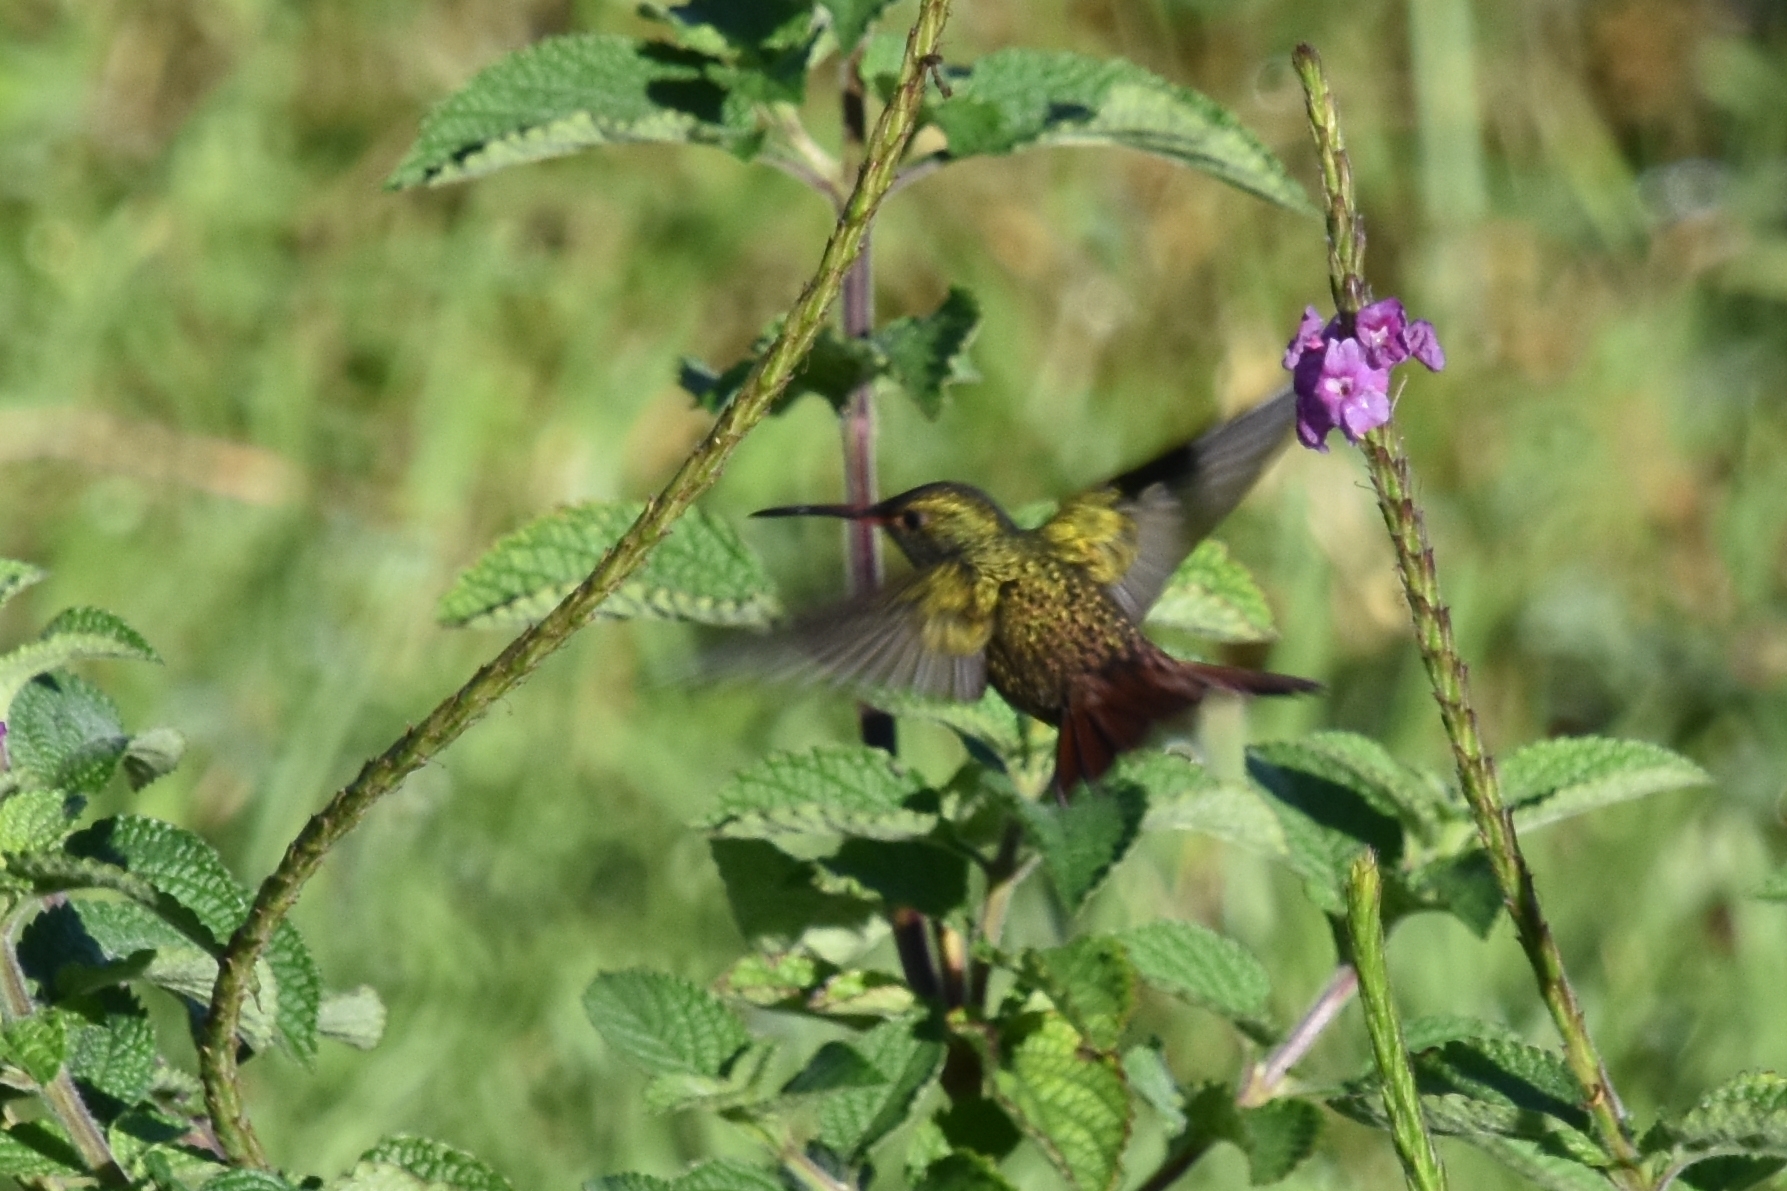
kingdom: Animalia
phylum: Chordata
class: Aves
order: Apodiformes
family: Trochilidae
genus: Amazilia
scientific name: Amazilia tzacatl
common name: Rufous-tailed hummingbird
